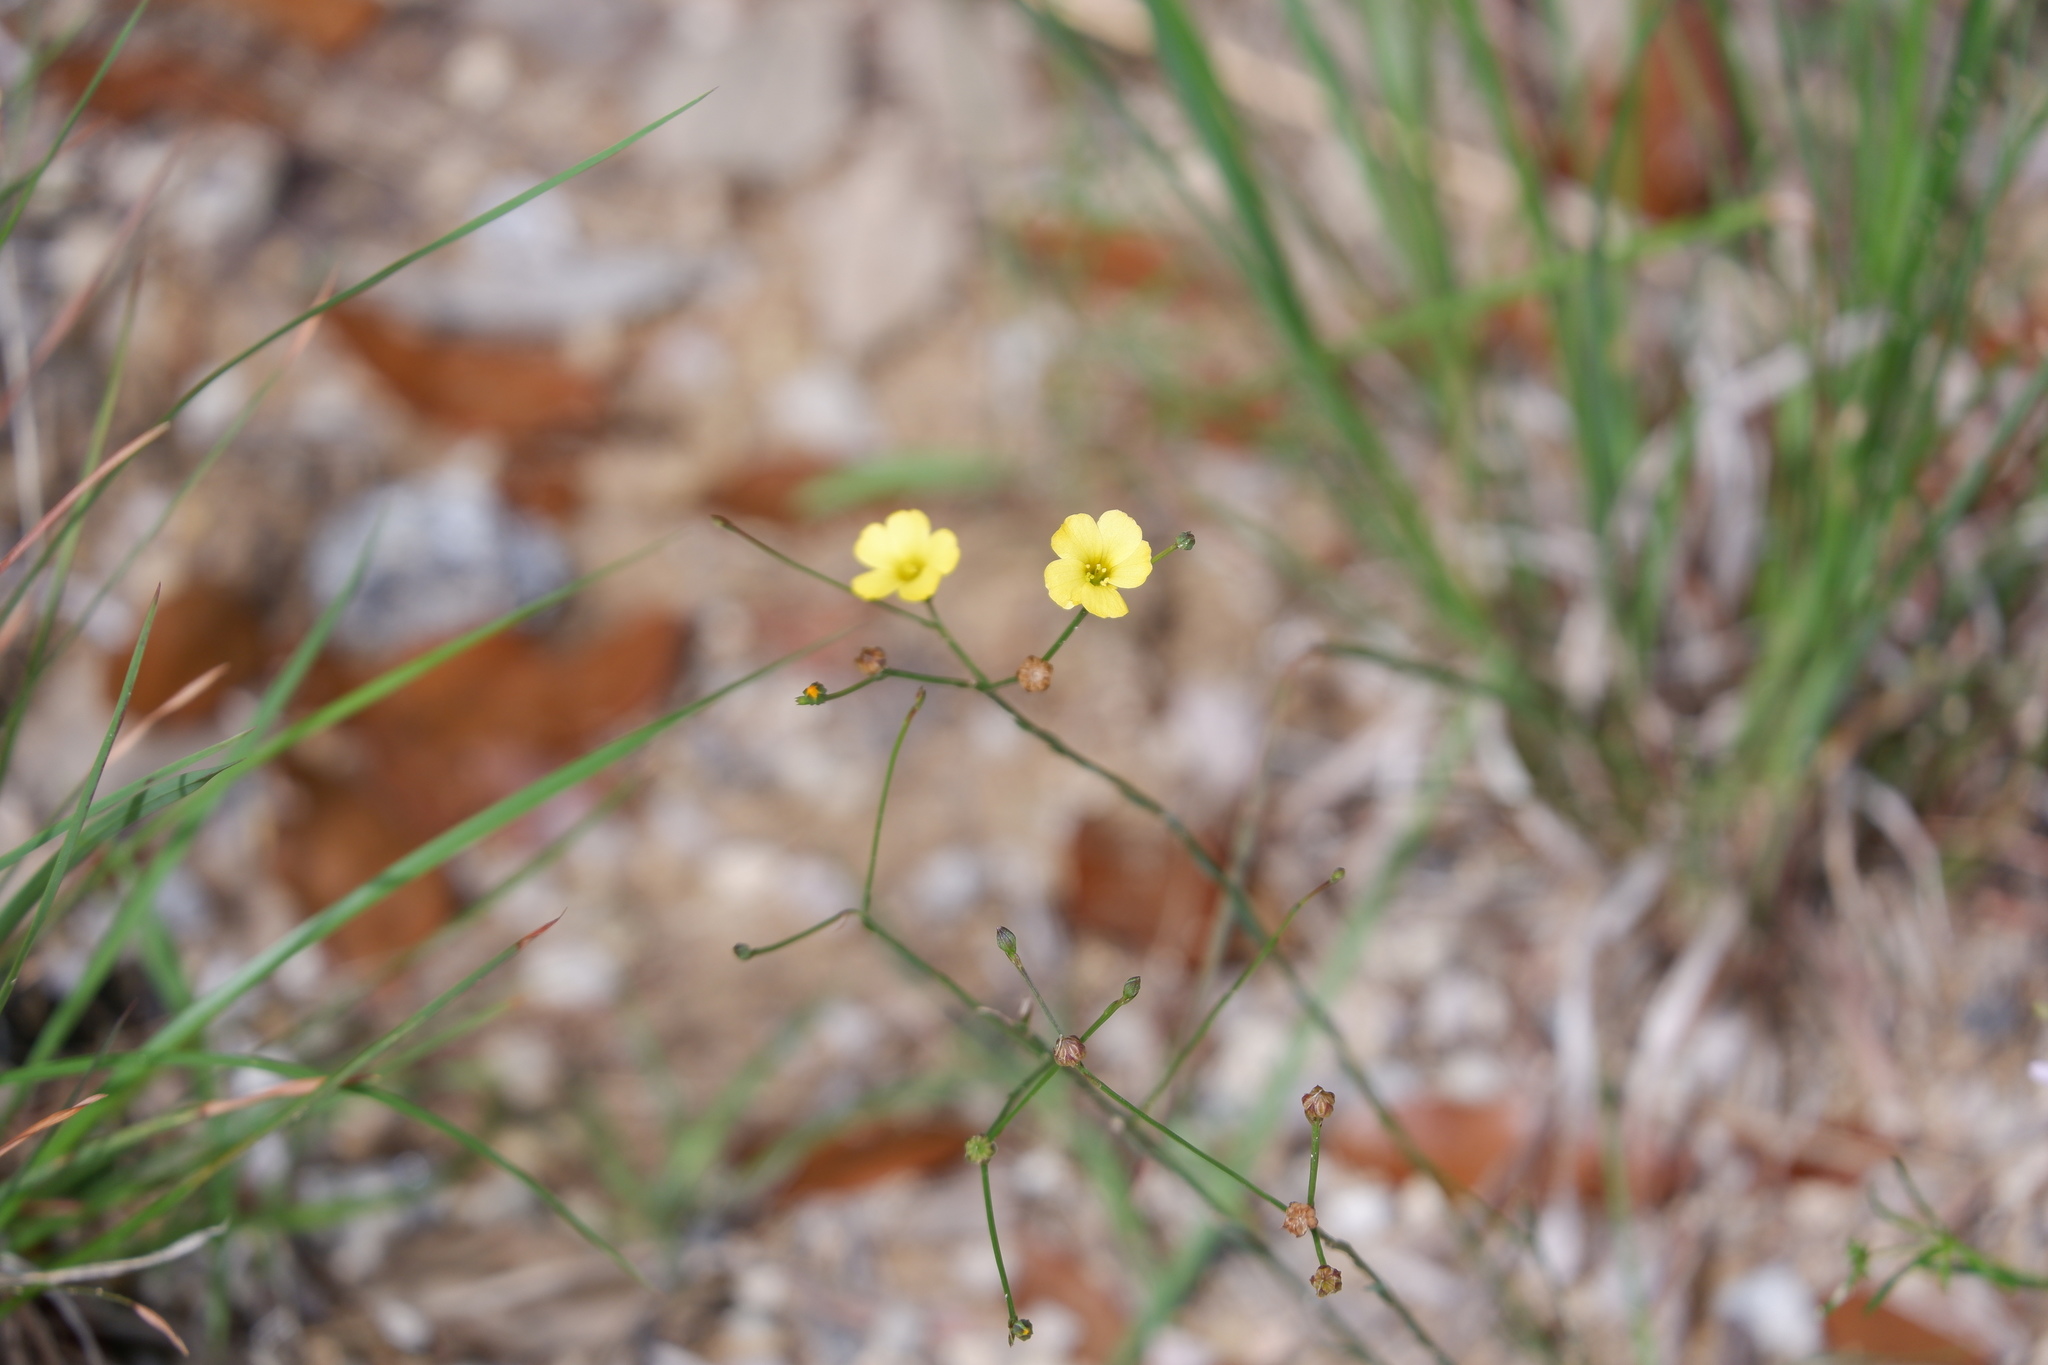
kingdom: Plantae
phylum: Tracheophyta
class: Magnoliopsida
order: Malpighiales
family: Linaceae
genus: Linum
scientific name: Linum rupestre
